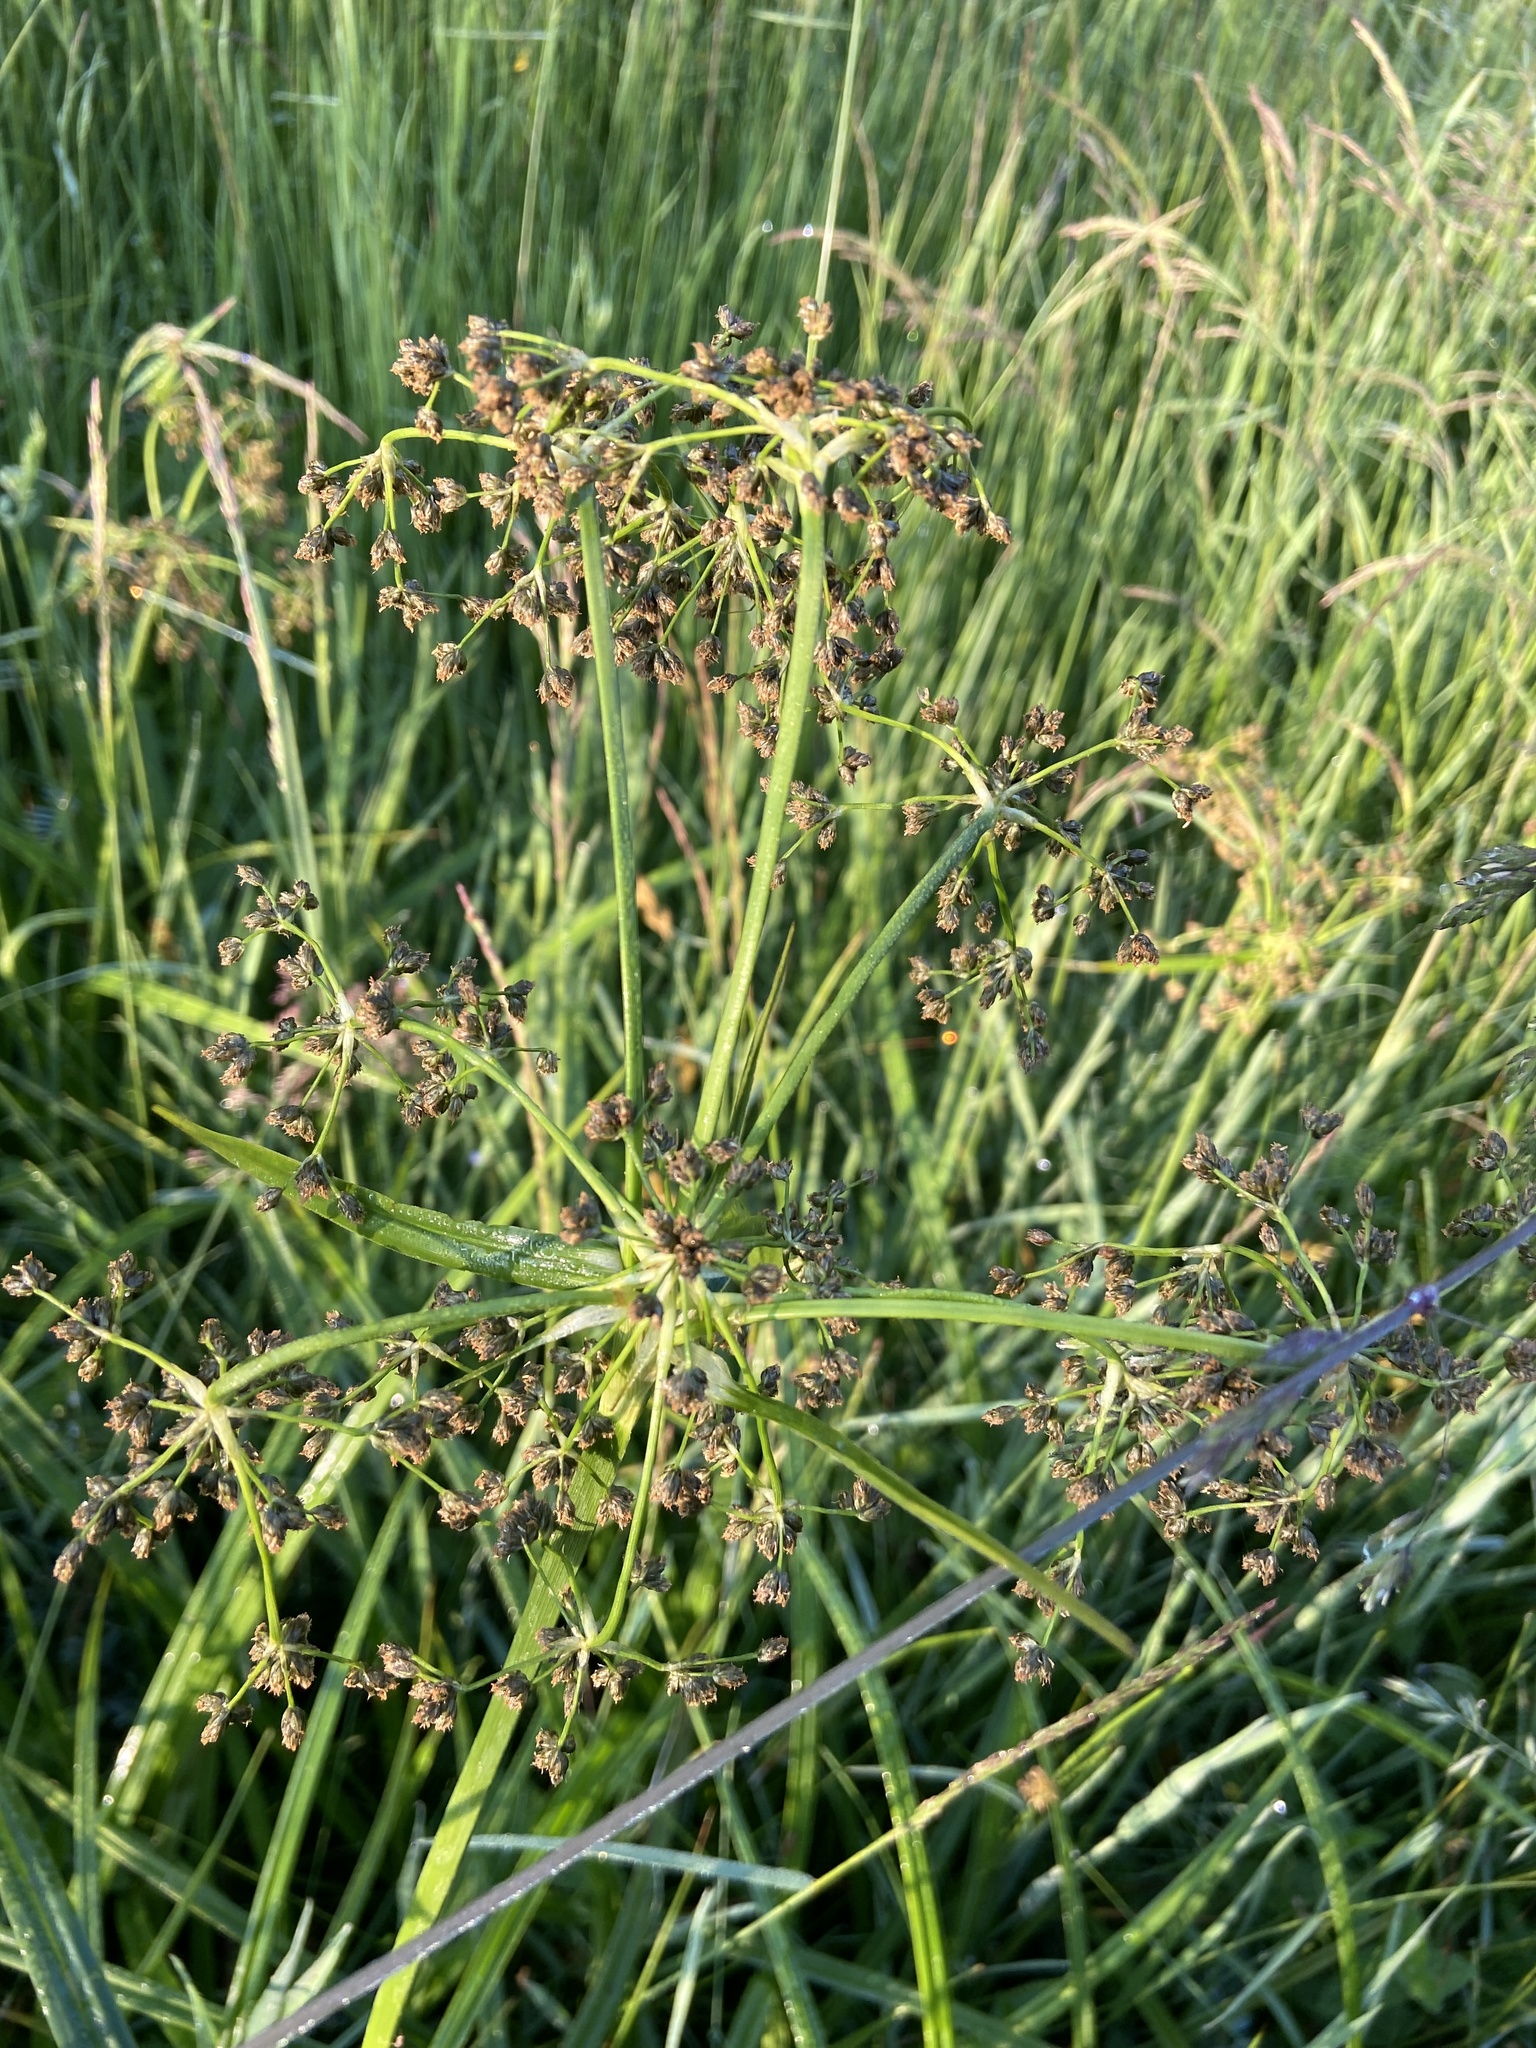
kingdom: Plantae
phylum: Tracheophyta
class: Liliopsida
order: Poales
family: Cyperaceae
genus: Scirpus
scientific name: Scirpus sylvaticus
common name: Wood club-rush
